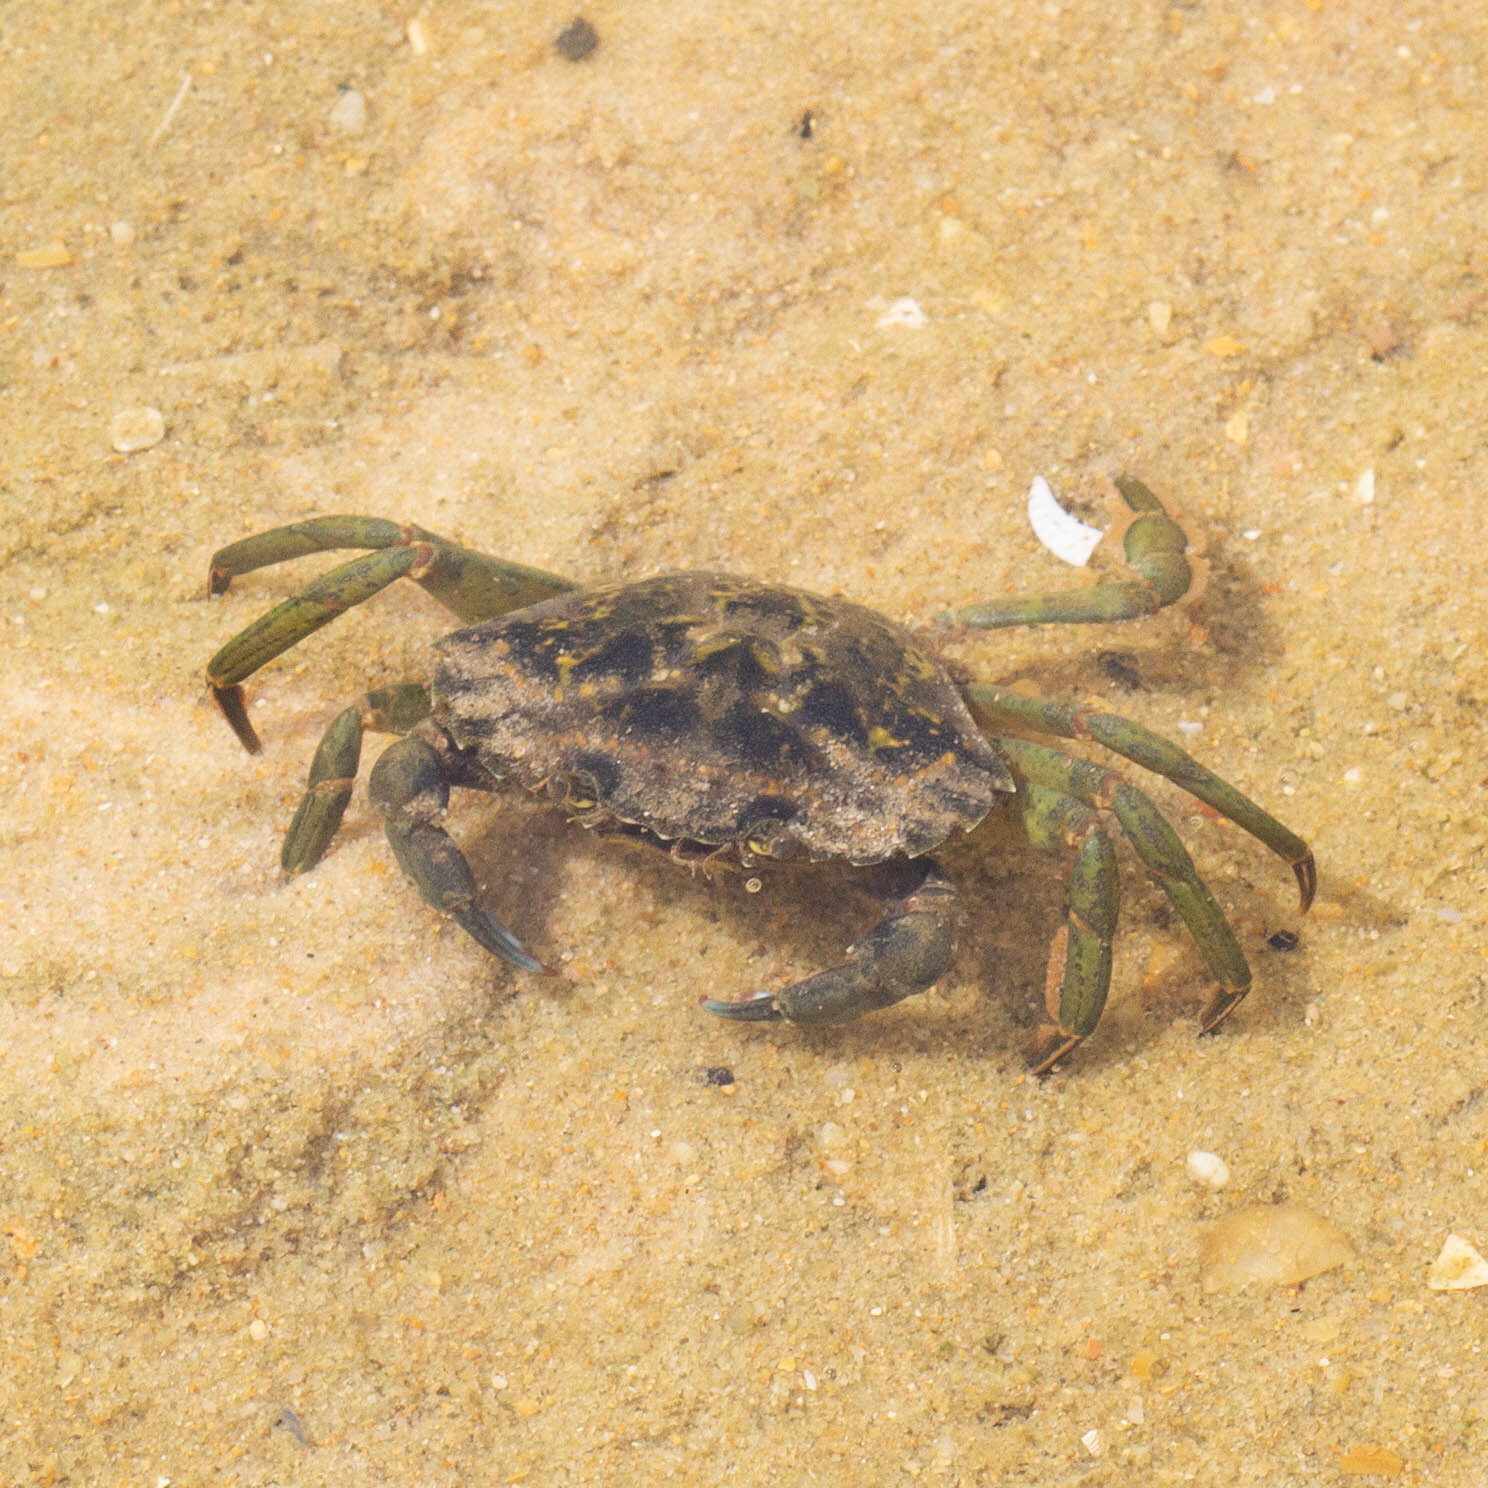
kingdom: Animalia
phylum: Arthropoda
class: Malacostraca
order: Decapoda
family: Carcinidae
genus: Carcinus
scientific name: Carcinus maenas
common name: European green crab
